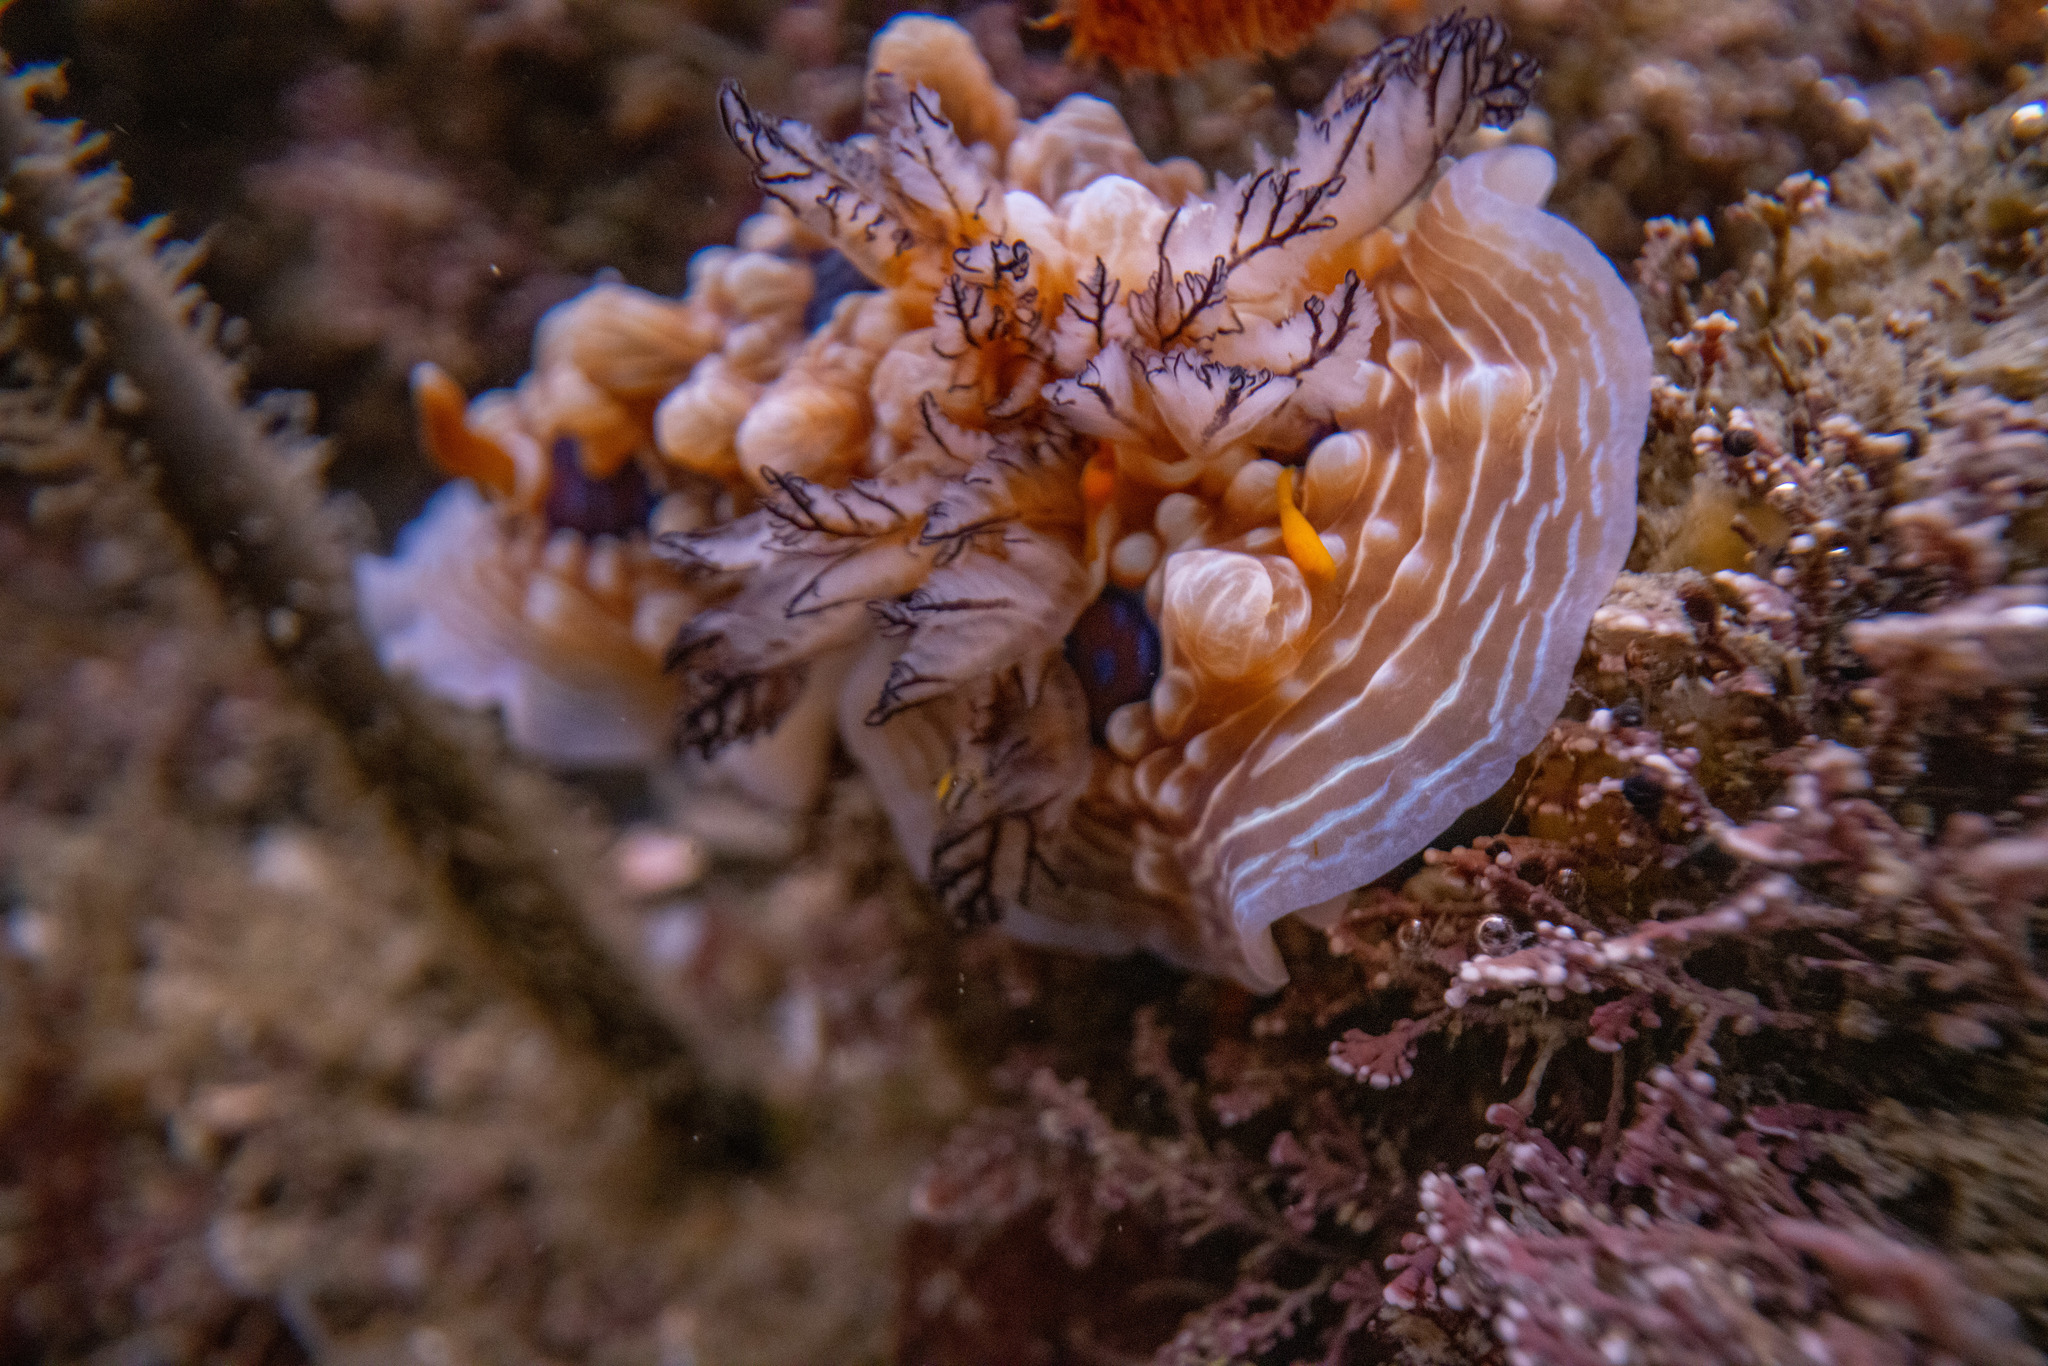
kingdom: Animalia
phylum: Mollusca
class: Gastropoda
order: Nudibranchia
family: Dendrodorididae
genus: Dendrodoris
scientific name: Dendrodoris krusensternii
